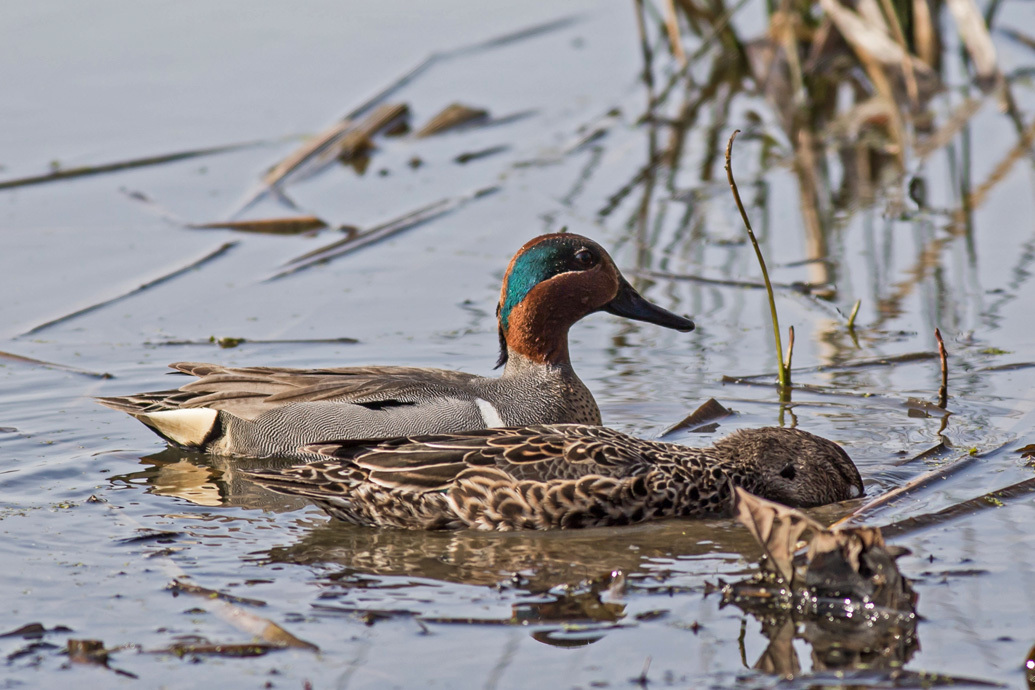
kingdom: Animalia
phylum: Chordata
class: Aves
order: Anseriformes
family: Anatidae
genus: Anas
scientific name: Anas crecca
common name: Eurasian teal
